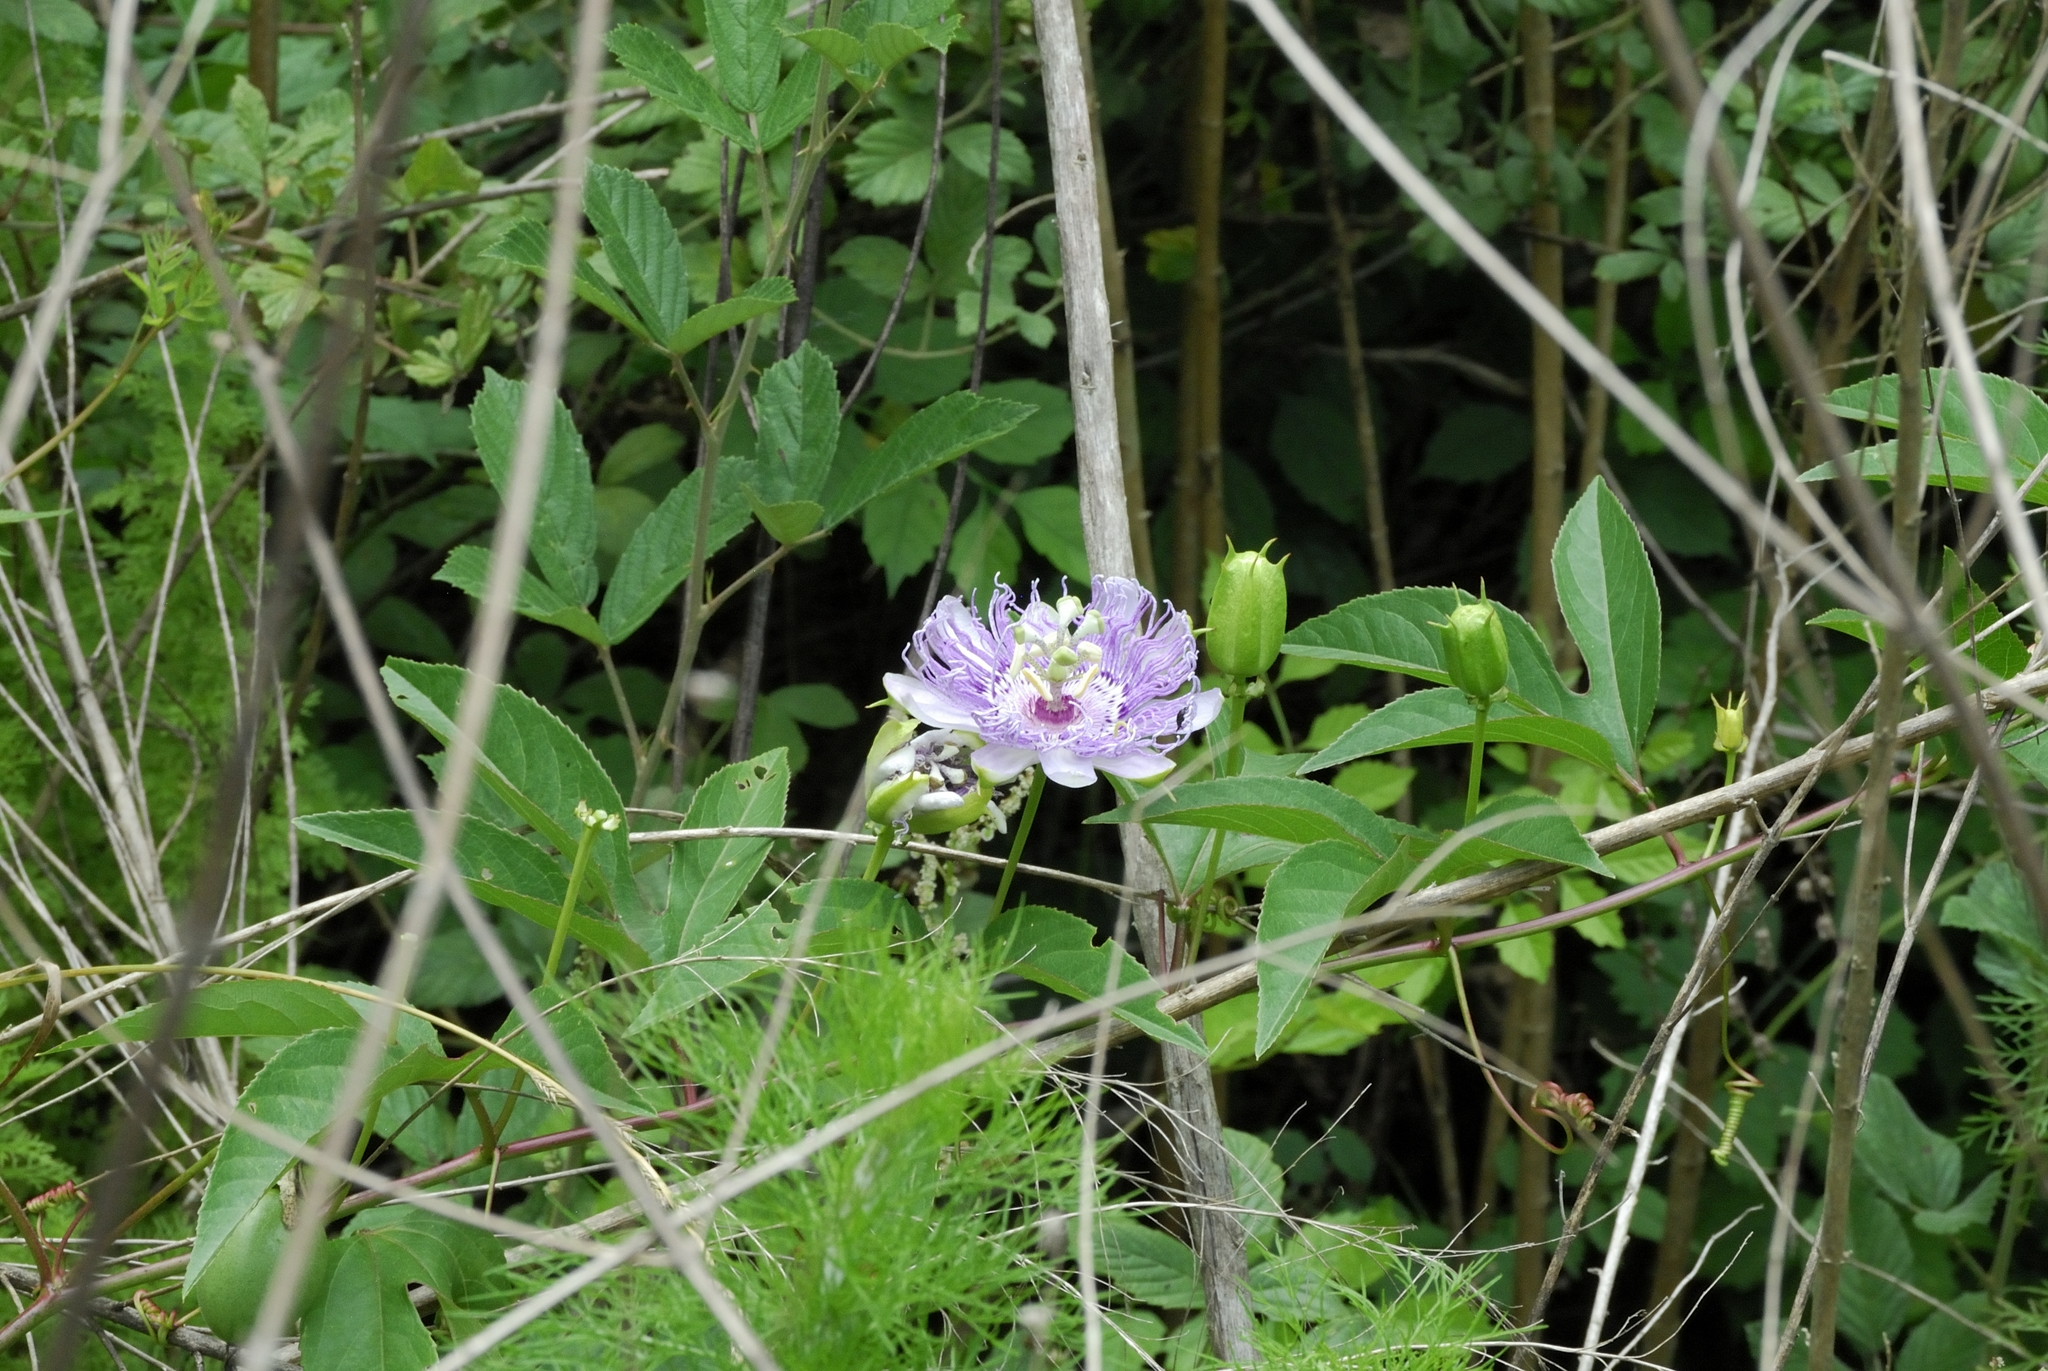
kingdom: Plantae
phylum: Tracheophyta
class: Magnoliopsida
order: Malpighiales
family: Passifloraceae
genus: Passiflora
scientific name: Passiflora incarnata
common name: Apricot-vine
